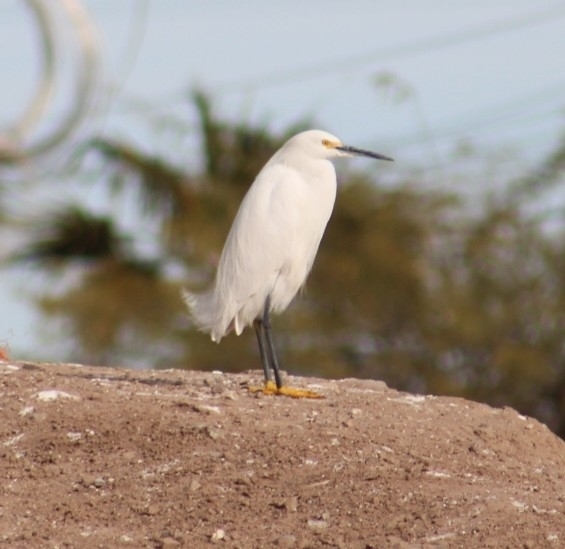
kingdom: Animalia
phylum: Chordata
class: Aves
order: Pelecaniformes
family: Ardeidae
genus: Egretta
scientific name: Egretta thula
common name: Snowy egret
